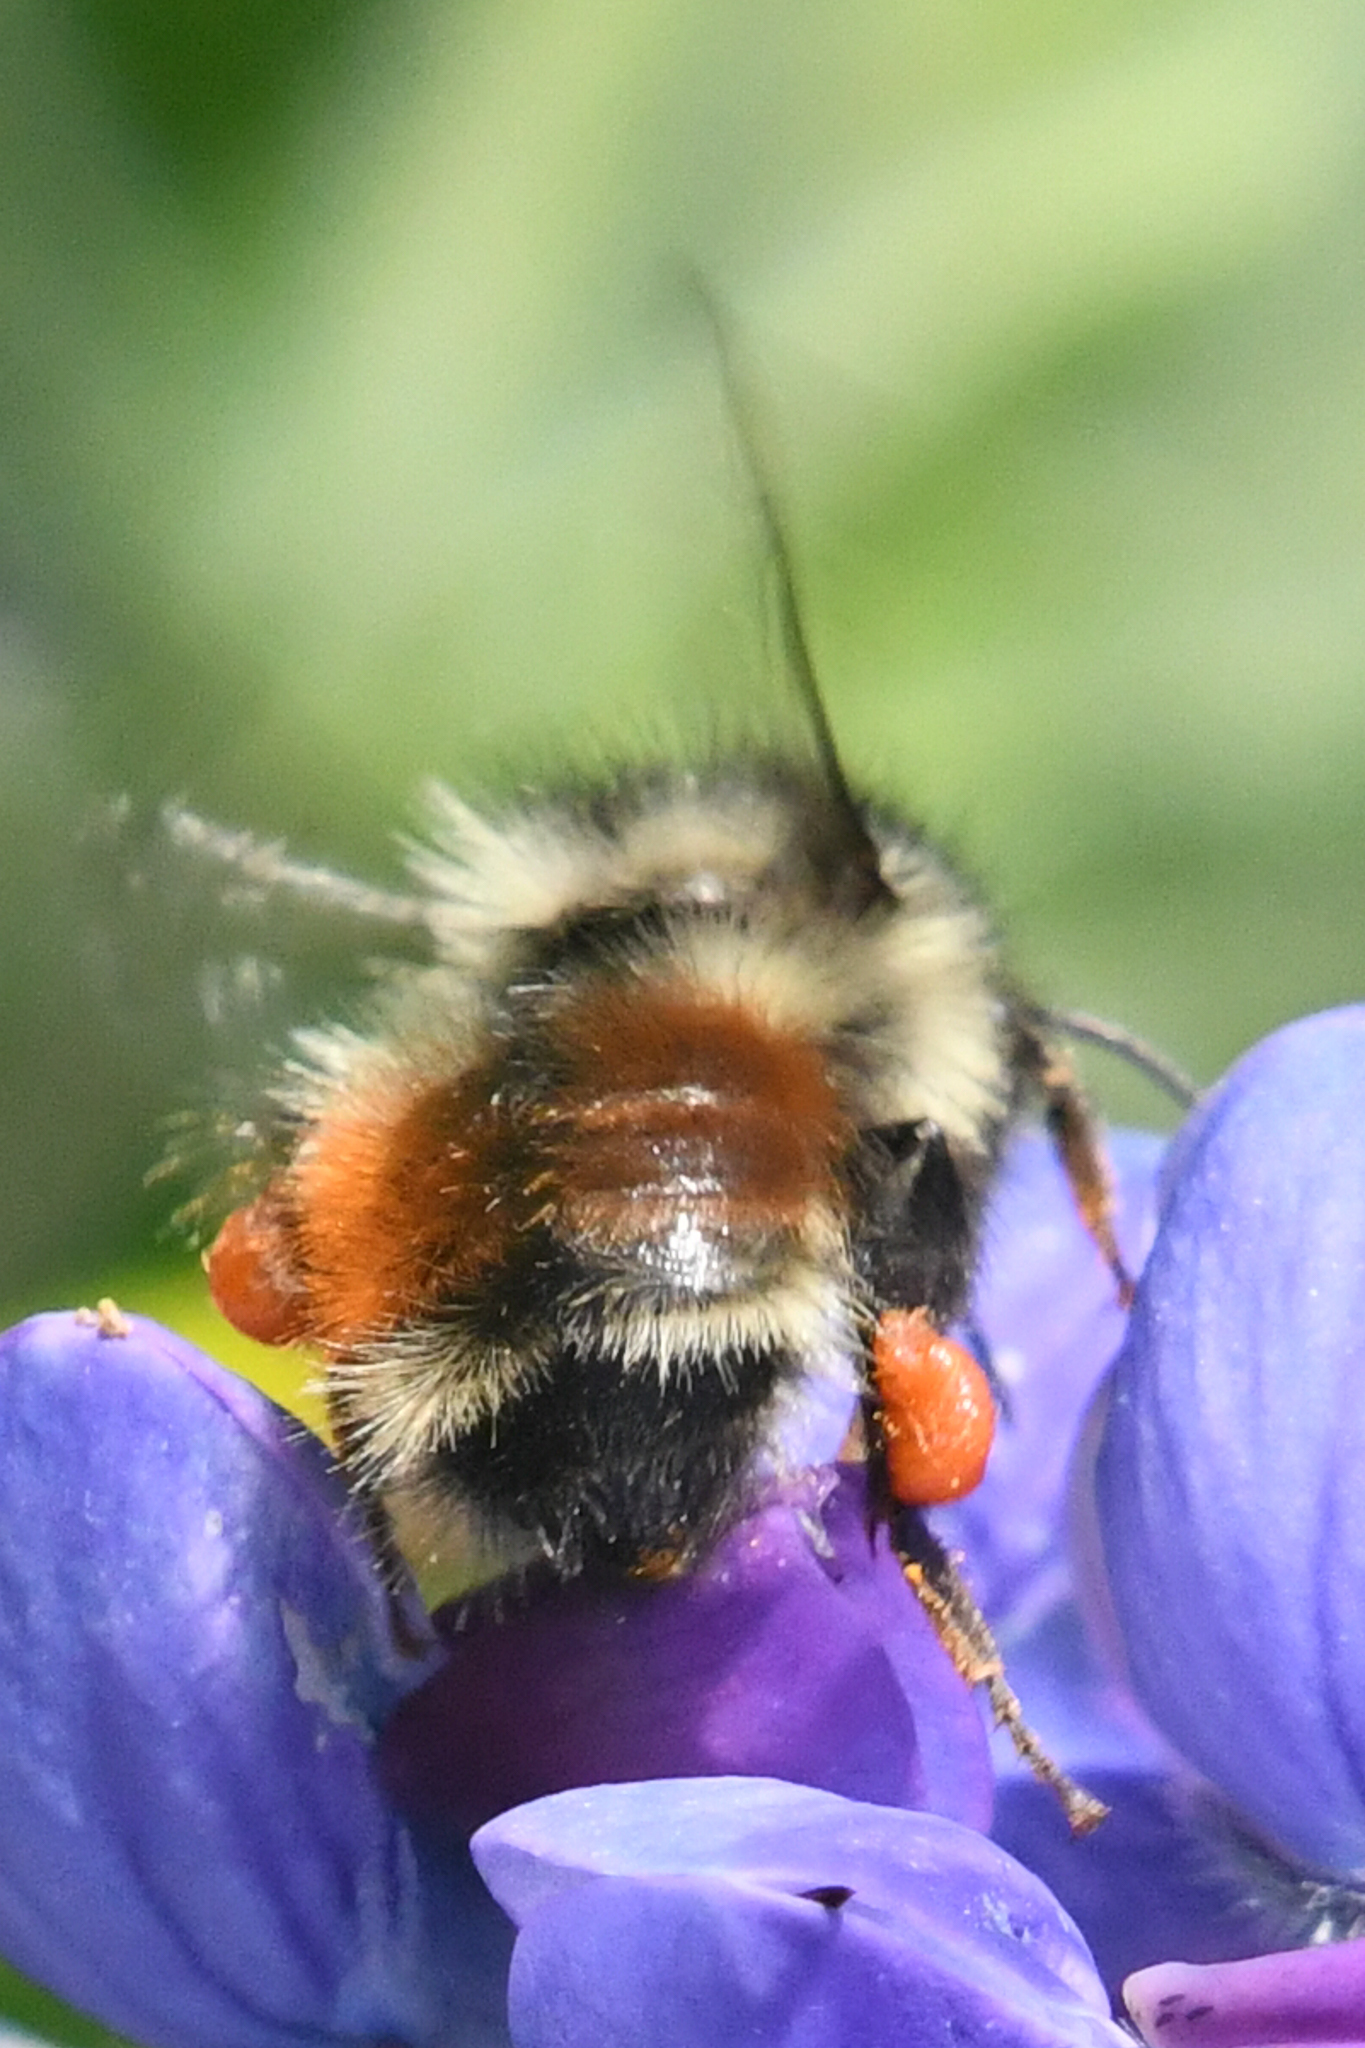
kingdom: Animalia
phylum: Arthropoda
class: Insecta
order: Hymenoptera
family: Apidae
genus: Bombus
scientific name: Bombus melanopygus
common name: Black tail bumble bee
